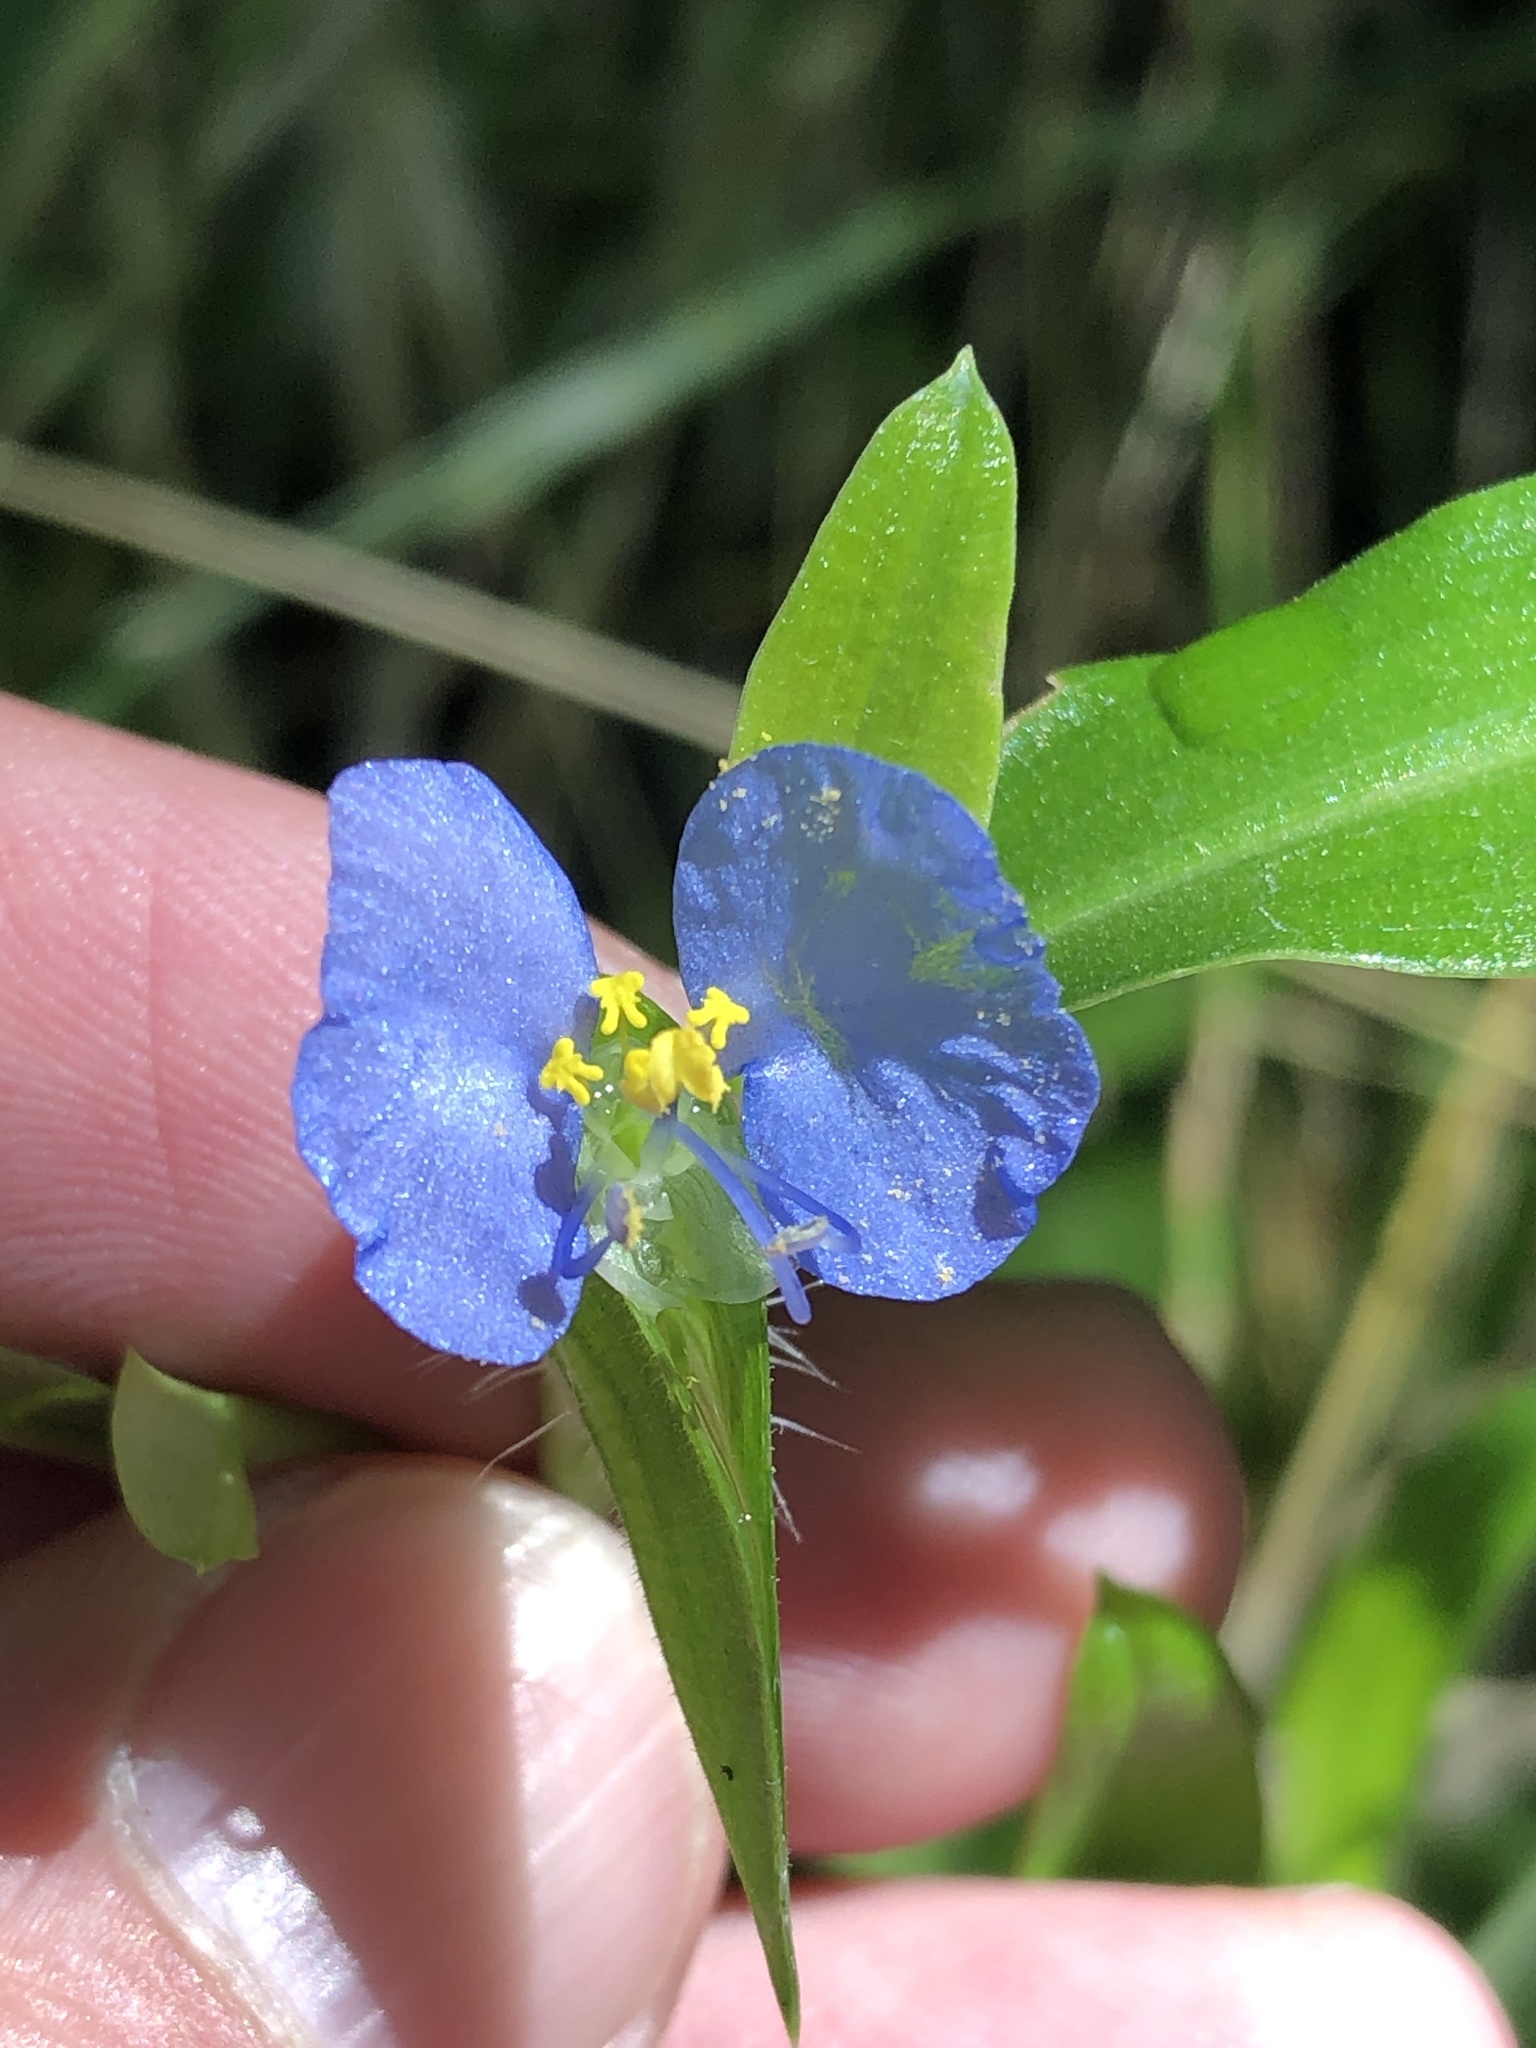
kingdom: Plantae
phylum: Tracheophyta
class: Liliopsida
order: Commelinales
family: Commelinaceae
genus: Commelina
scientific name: Commelina erecta
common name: Blousel blommetjie
